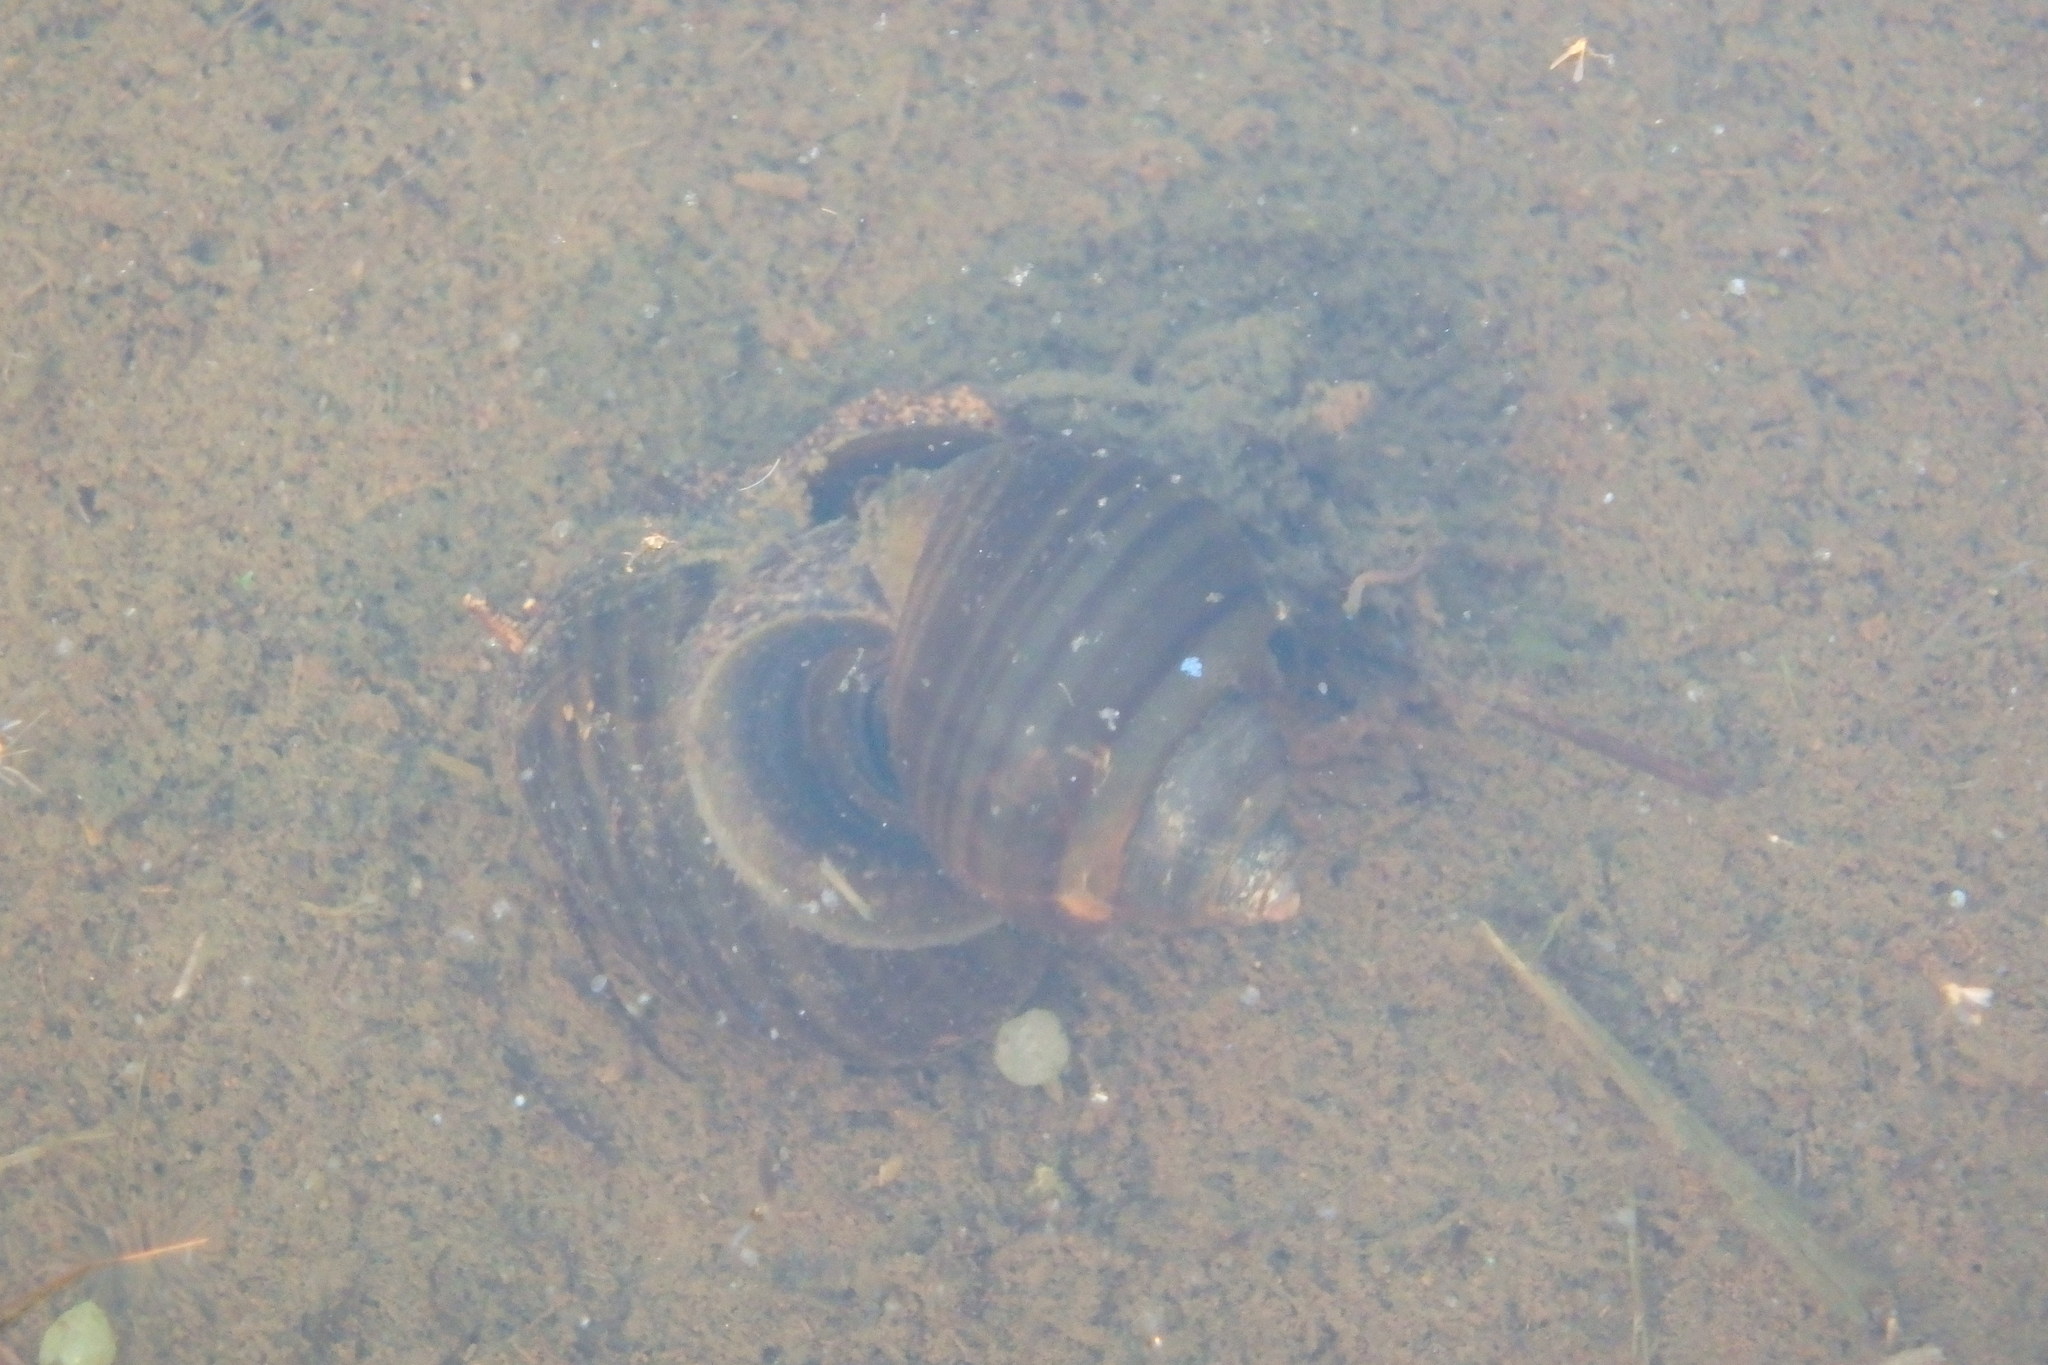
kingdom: Animalia
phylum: Mollusca
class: Gastropoda
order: Architaenioglossa
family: Ampullariidae
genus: Pomacea
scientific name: Pomacea canaliculata
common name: Channeled applesnail
